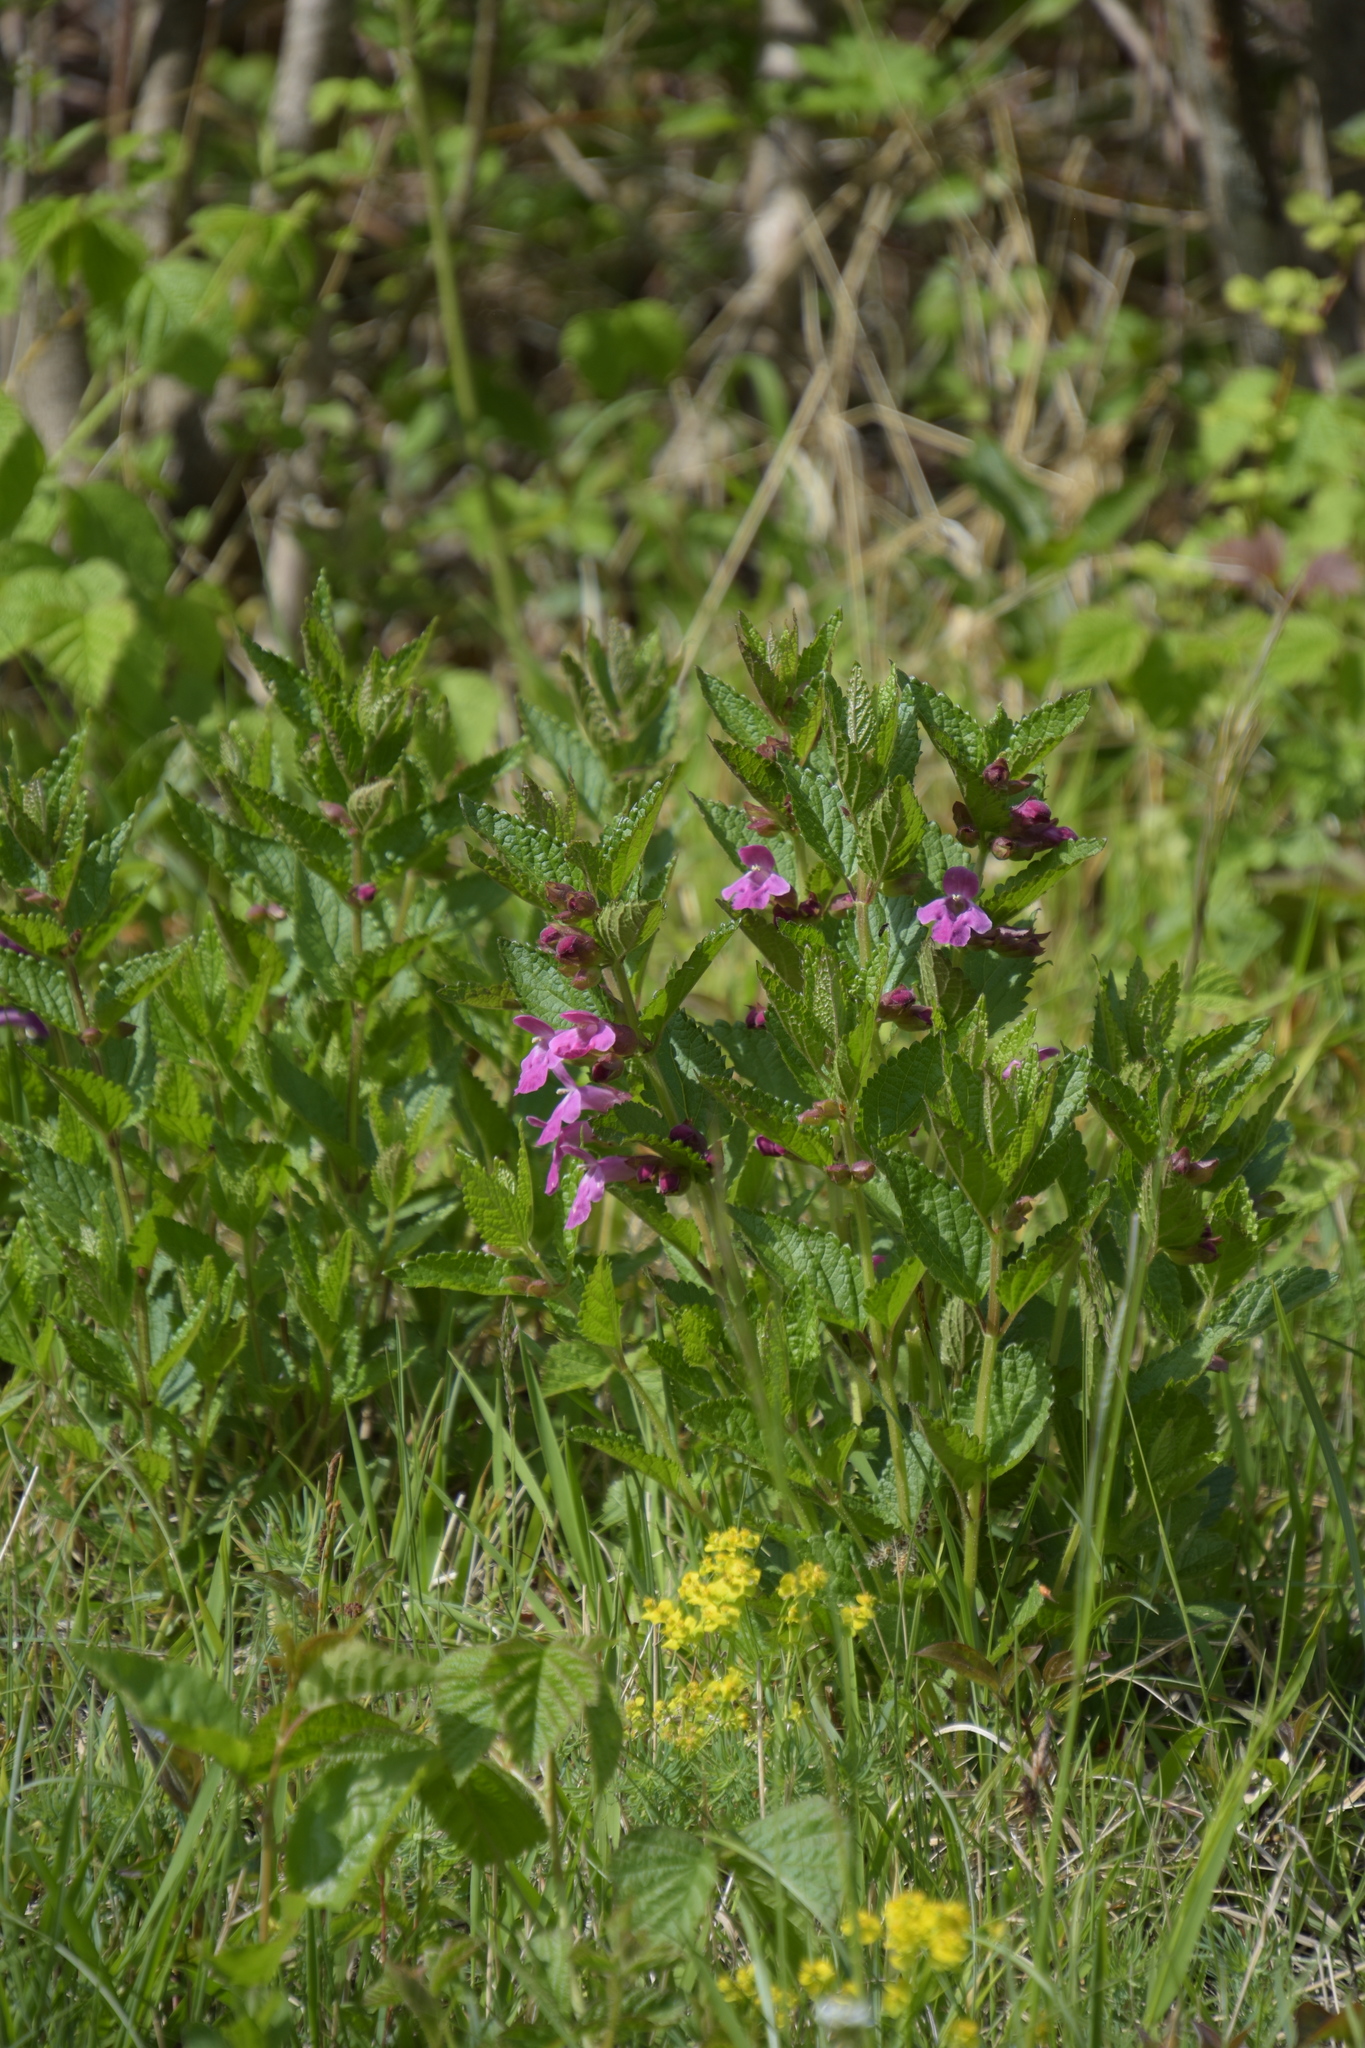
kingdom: Plantae
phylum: Tracheophyta
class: Magnoliopsida
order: Lamiales
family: Lamiaceae
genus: Melittis
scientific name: Melittis melissophyllum
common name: Bastard balm
